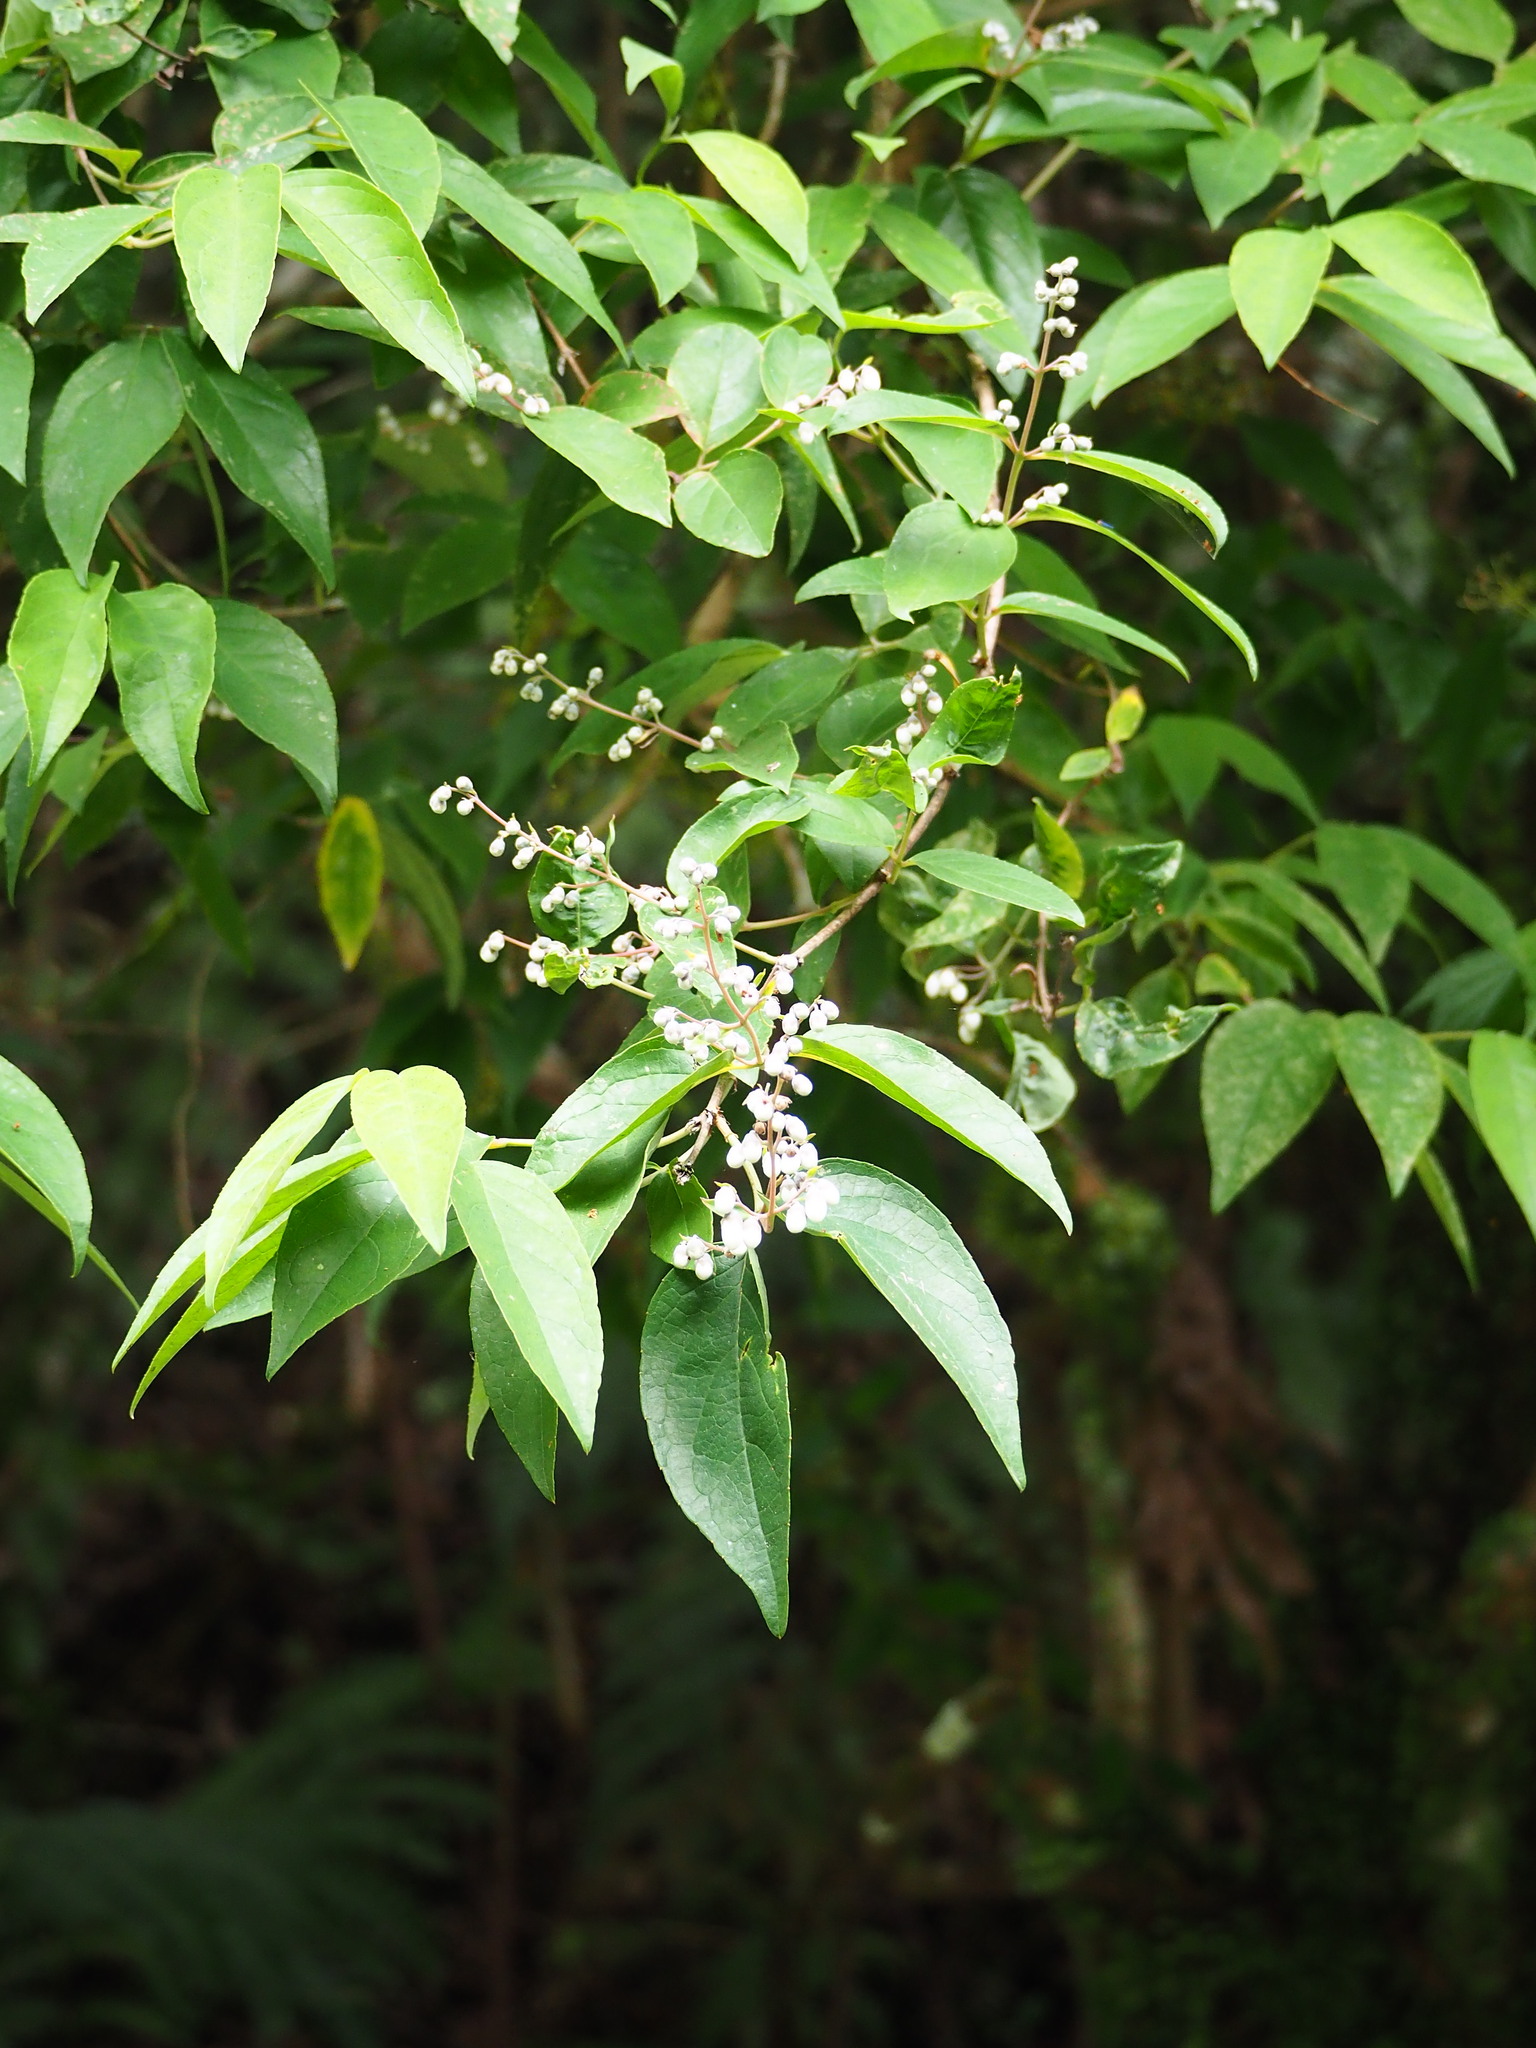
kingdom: Plantae
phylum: Tracheophyta
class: Magnoliopsida
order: Cornales
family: Hydrangeaceae
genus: Deutzia
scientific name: Deutzia pulchra
